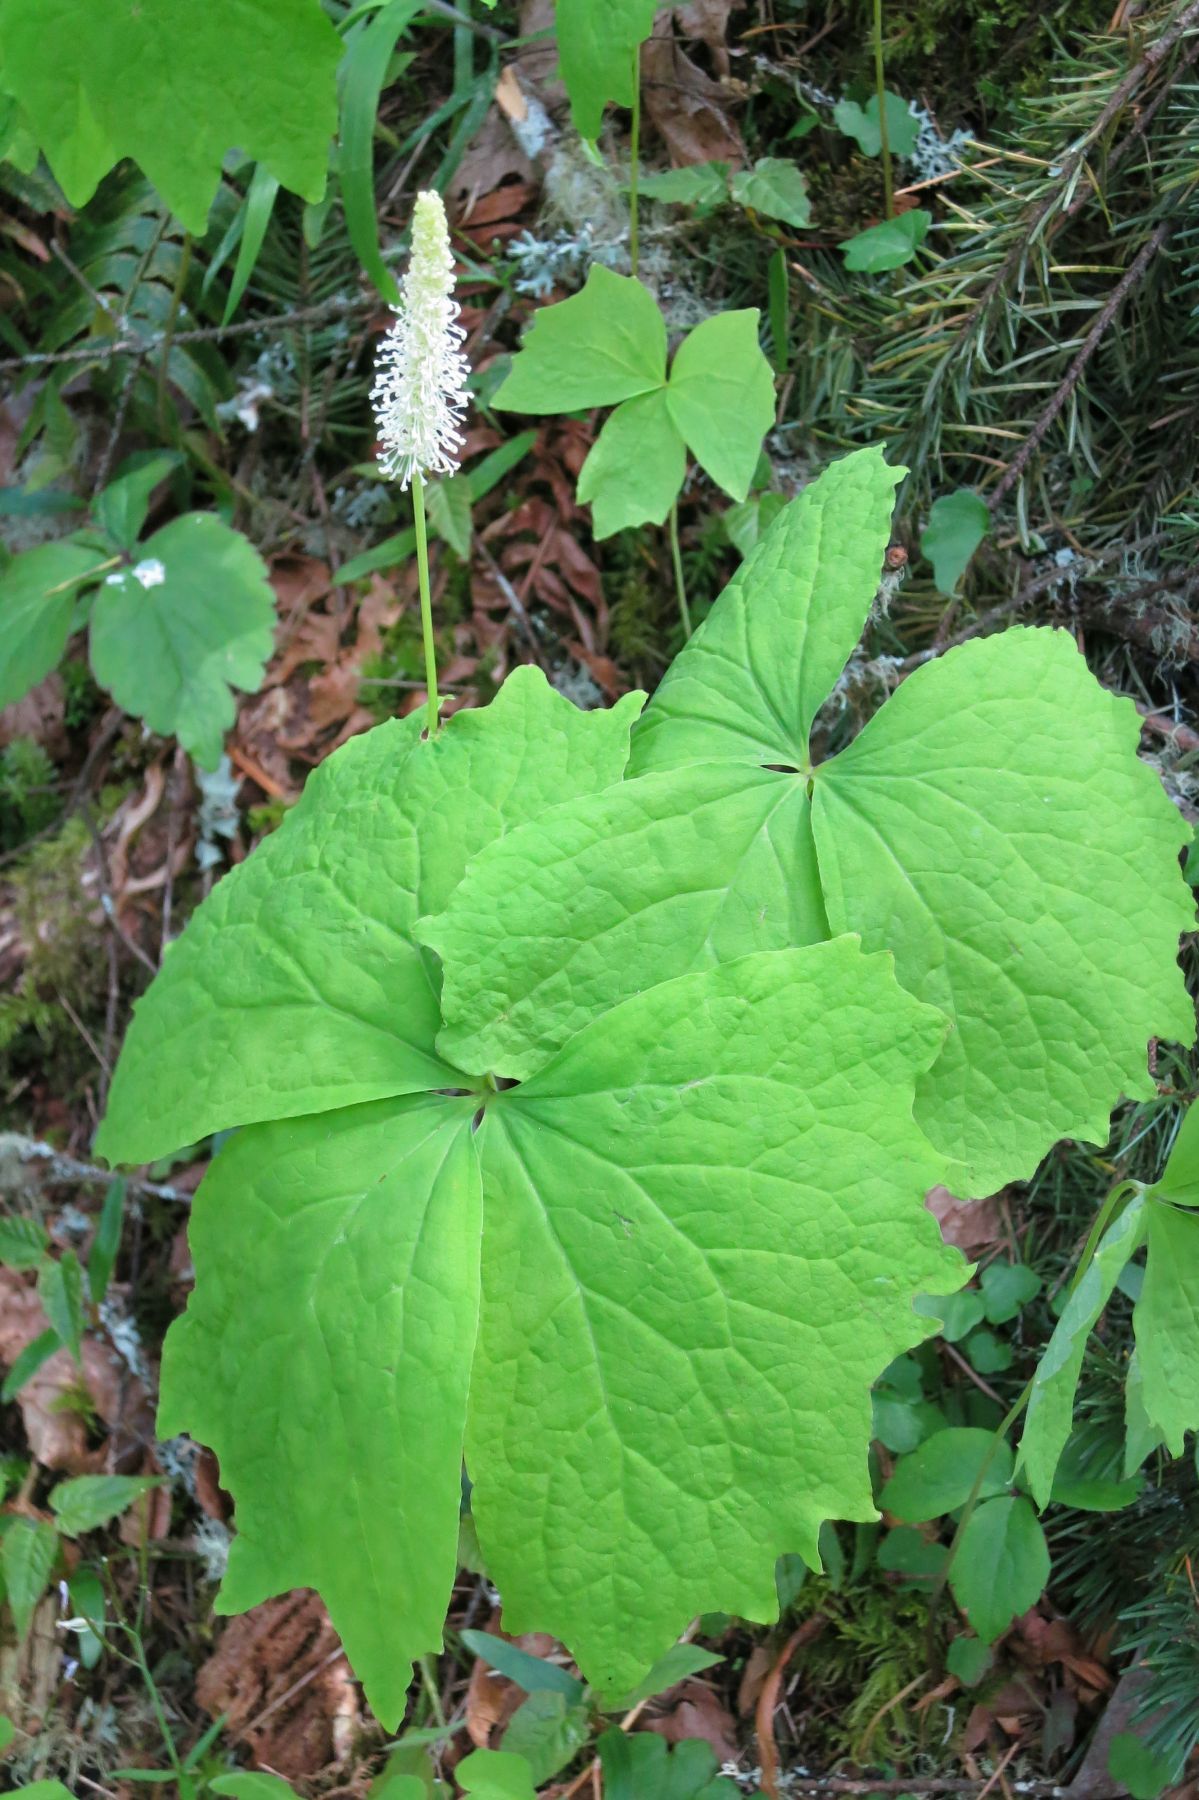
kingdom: Plantae
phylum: Tracheophyta
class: Magnoliopsida
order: Ranunculales
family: Berberidaceae
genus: Achlys
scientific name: Achlys californica
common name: California deer-foot
